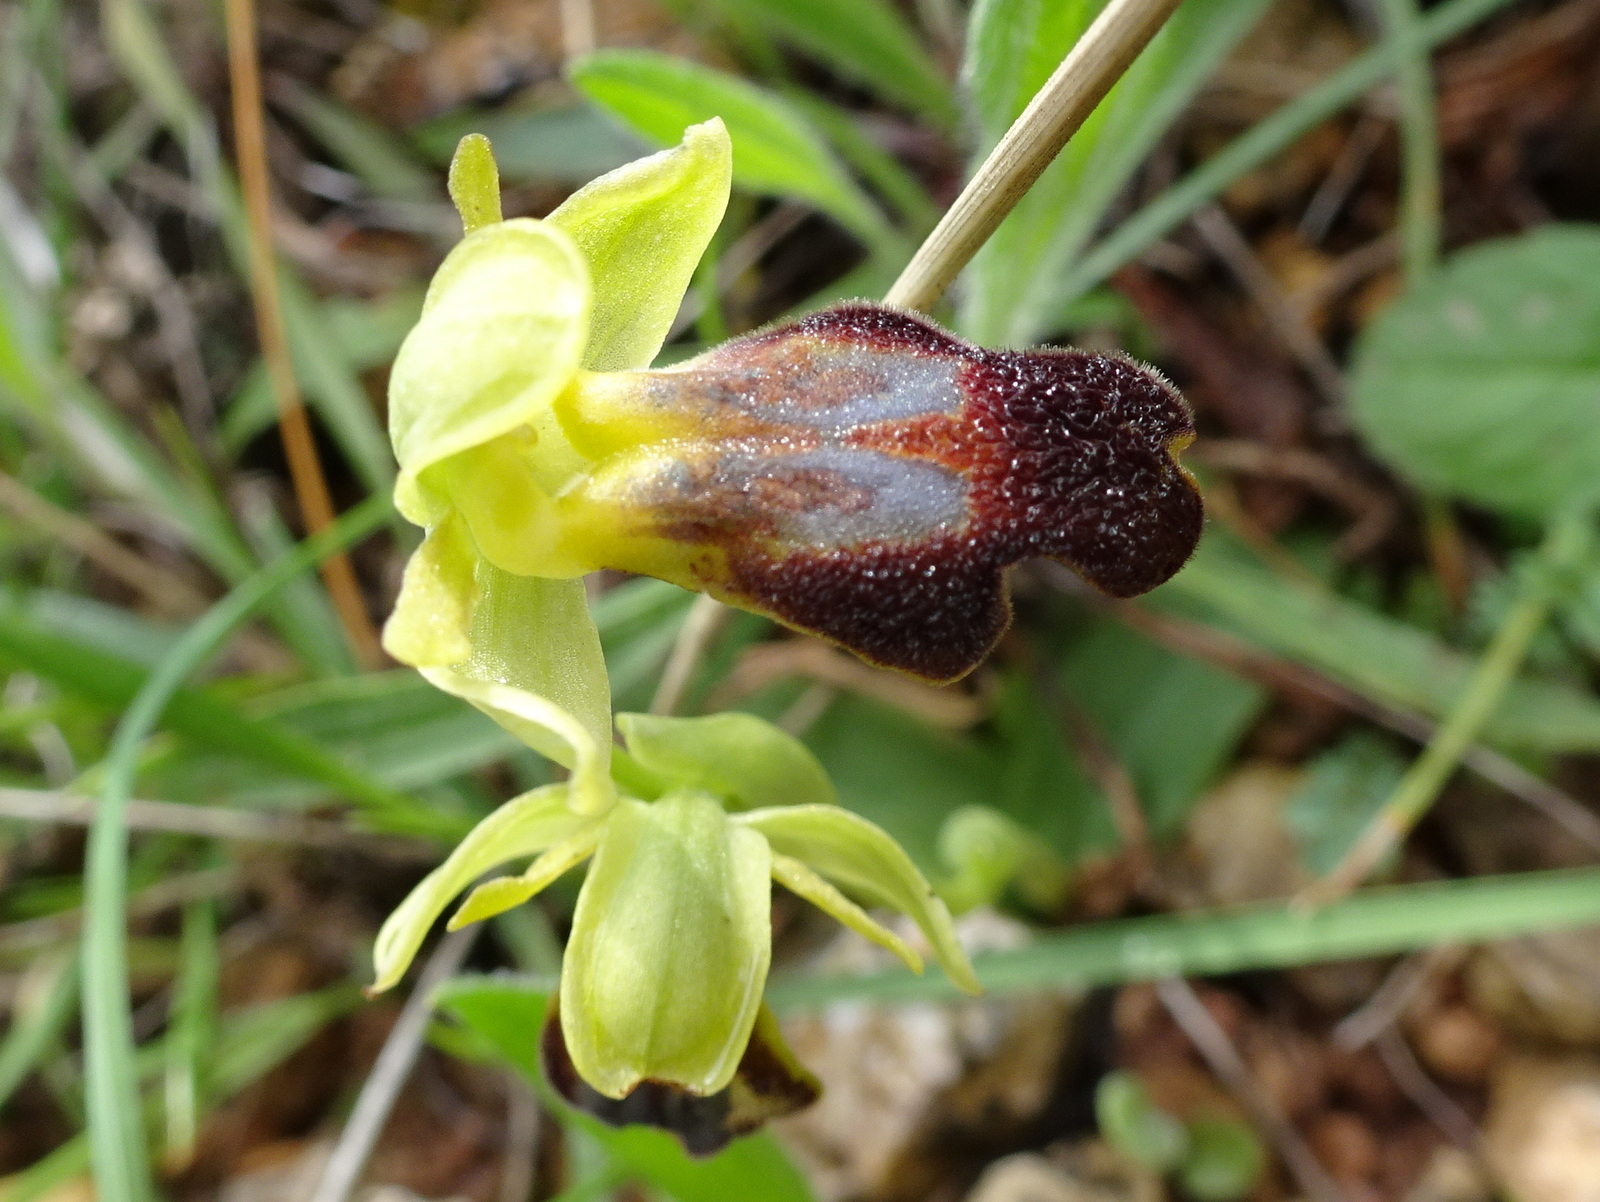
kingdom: Plantae
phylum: Tracheophyta
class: Liliopsida
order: Asparagales
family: Orchidaceae
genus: Ophrys
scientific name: Ophrys fusca
